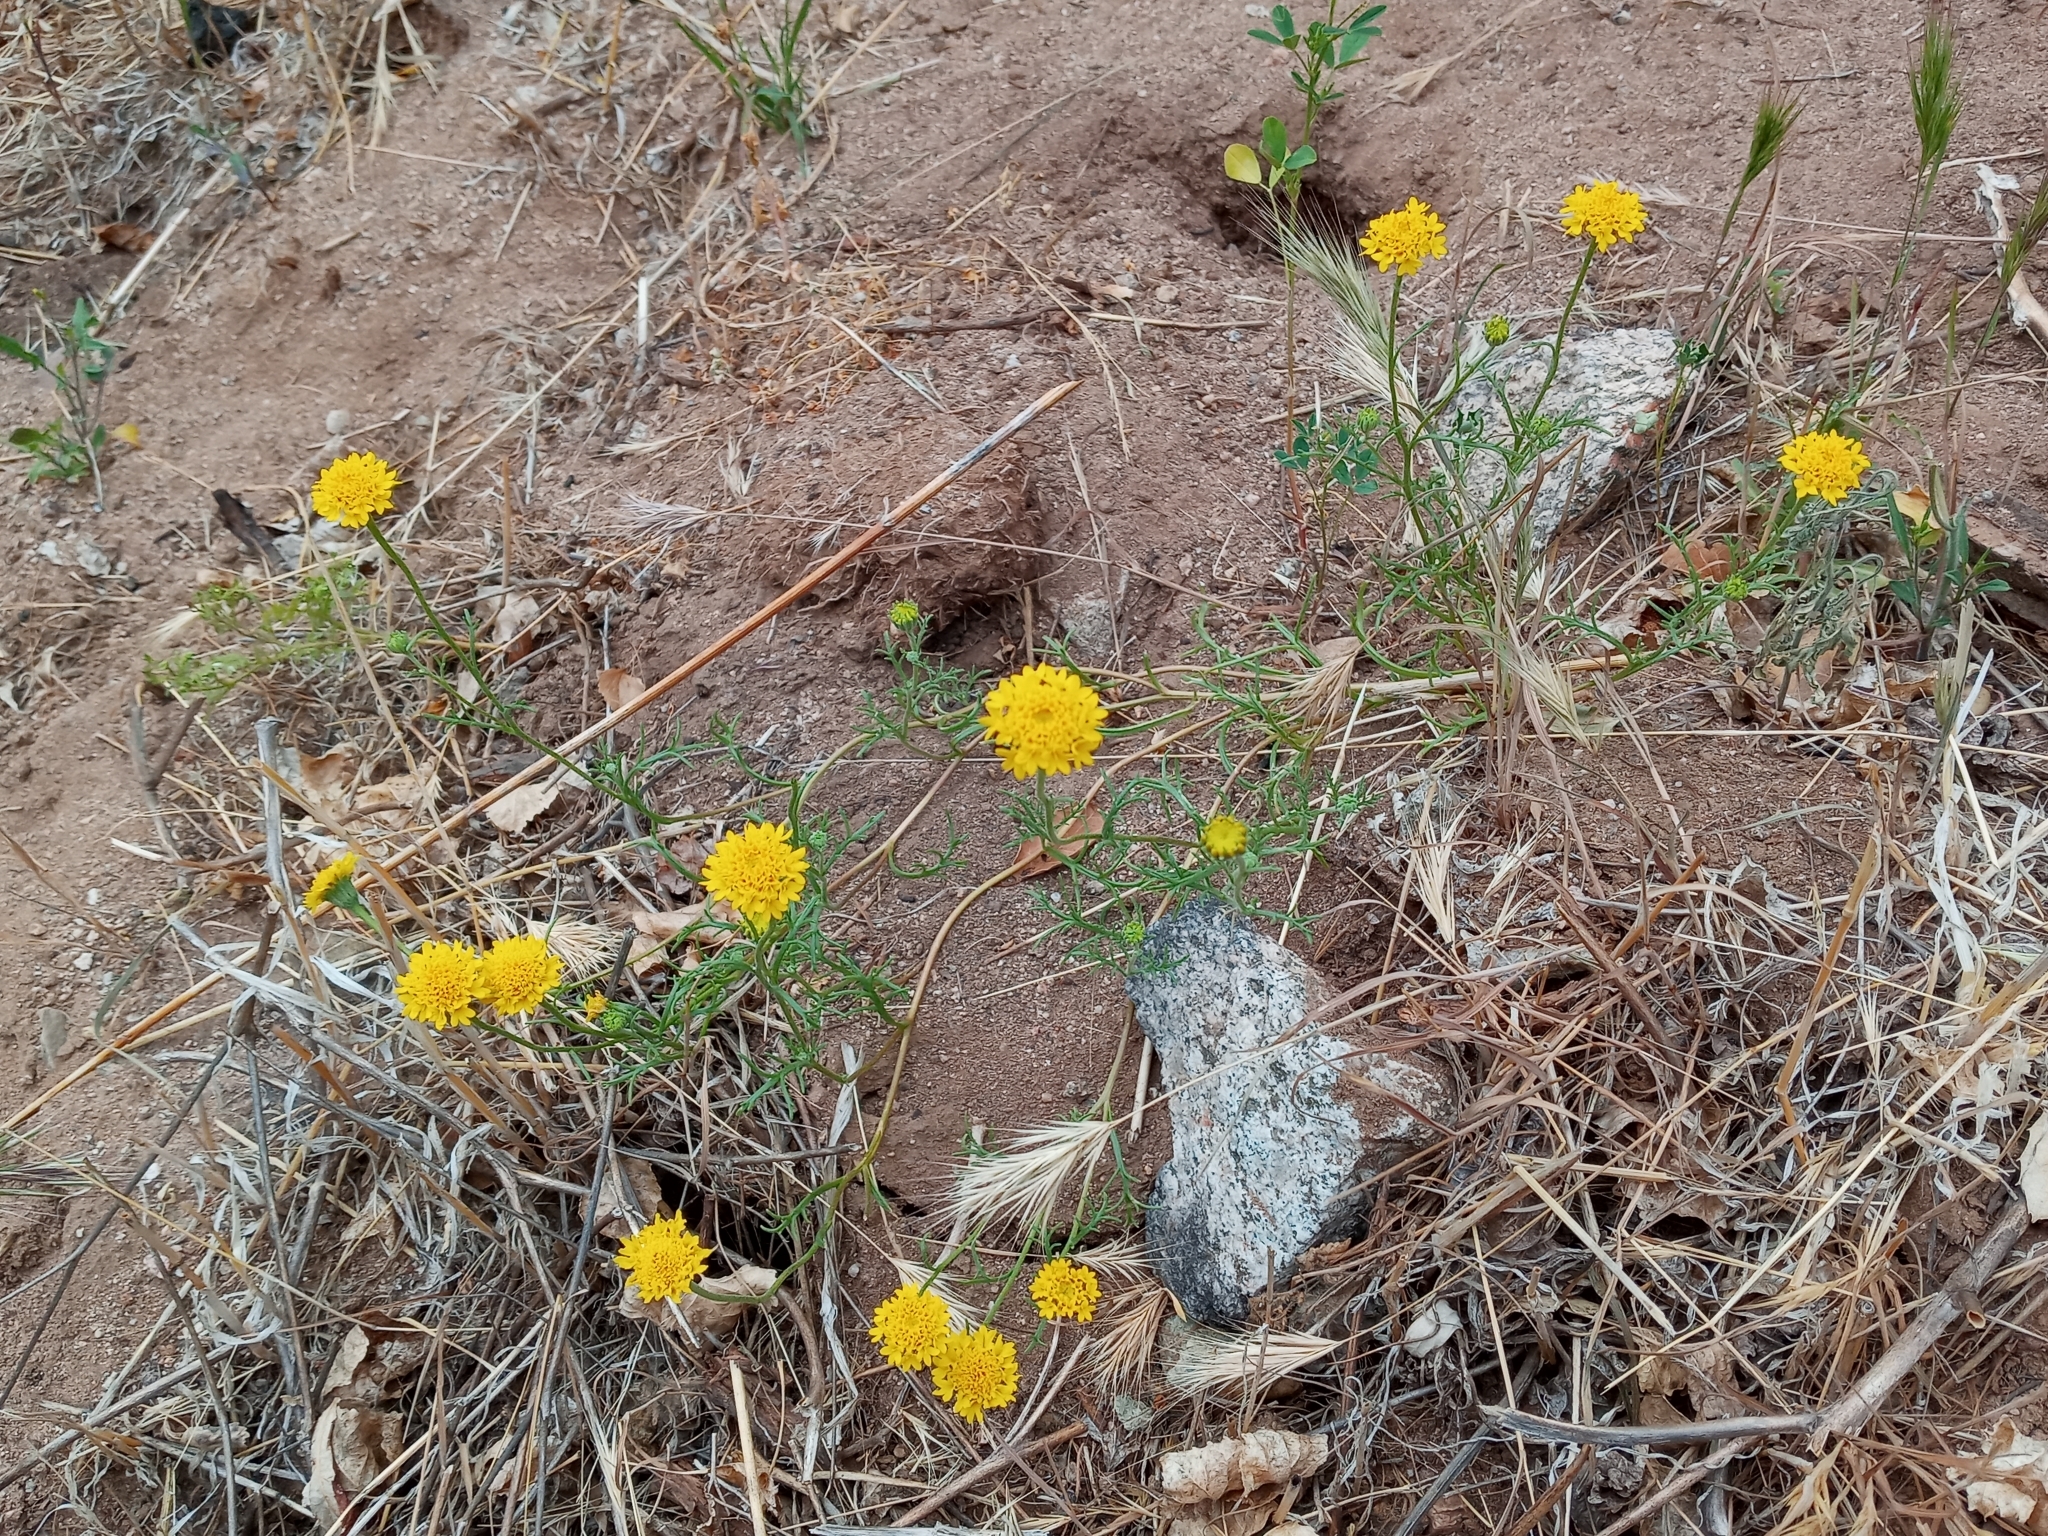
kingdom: Plantae
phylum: Tracheophyta
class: Magnoliopsida
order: Asterales
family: Asteraceae
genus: Chaenactis
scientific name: Chaenactis glabriuscula
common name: Yellow pincushion
